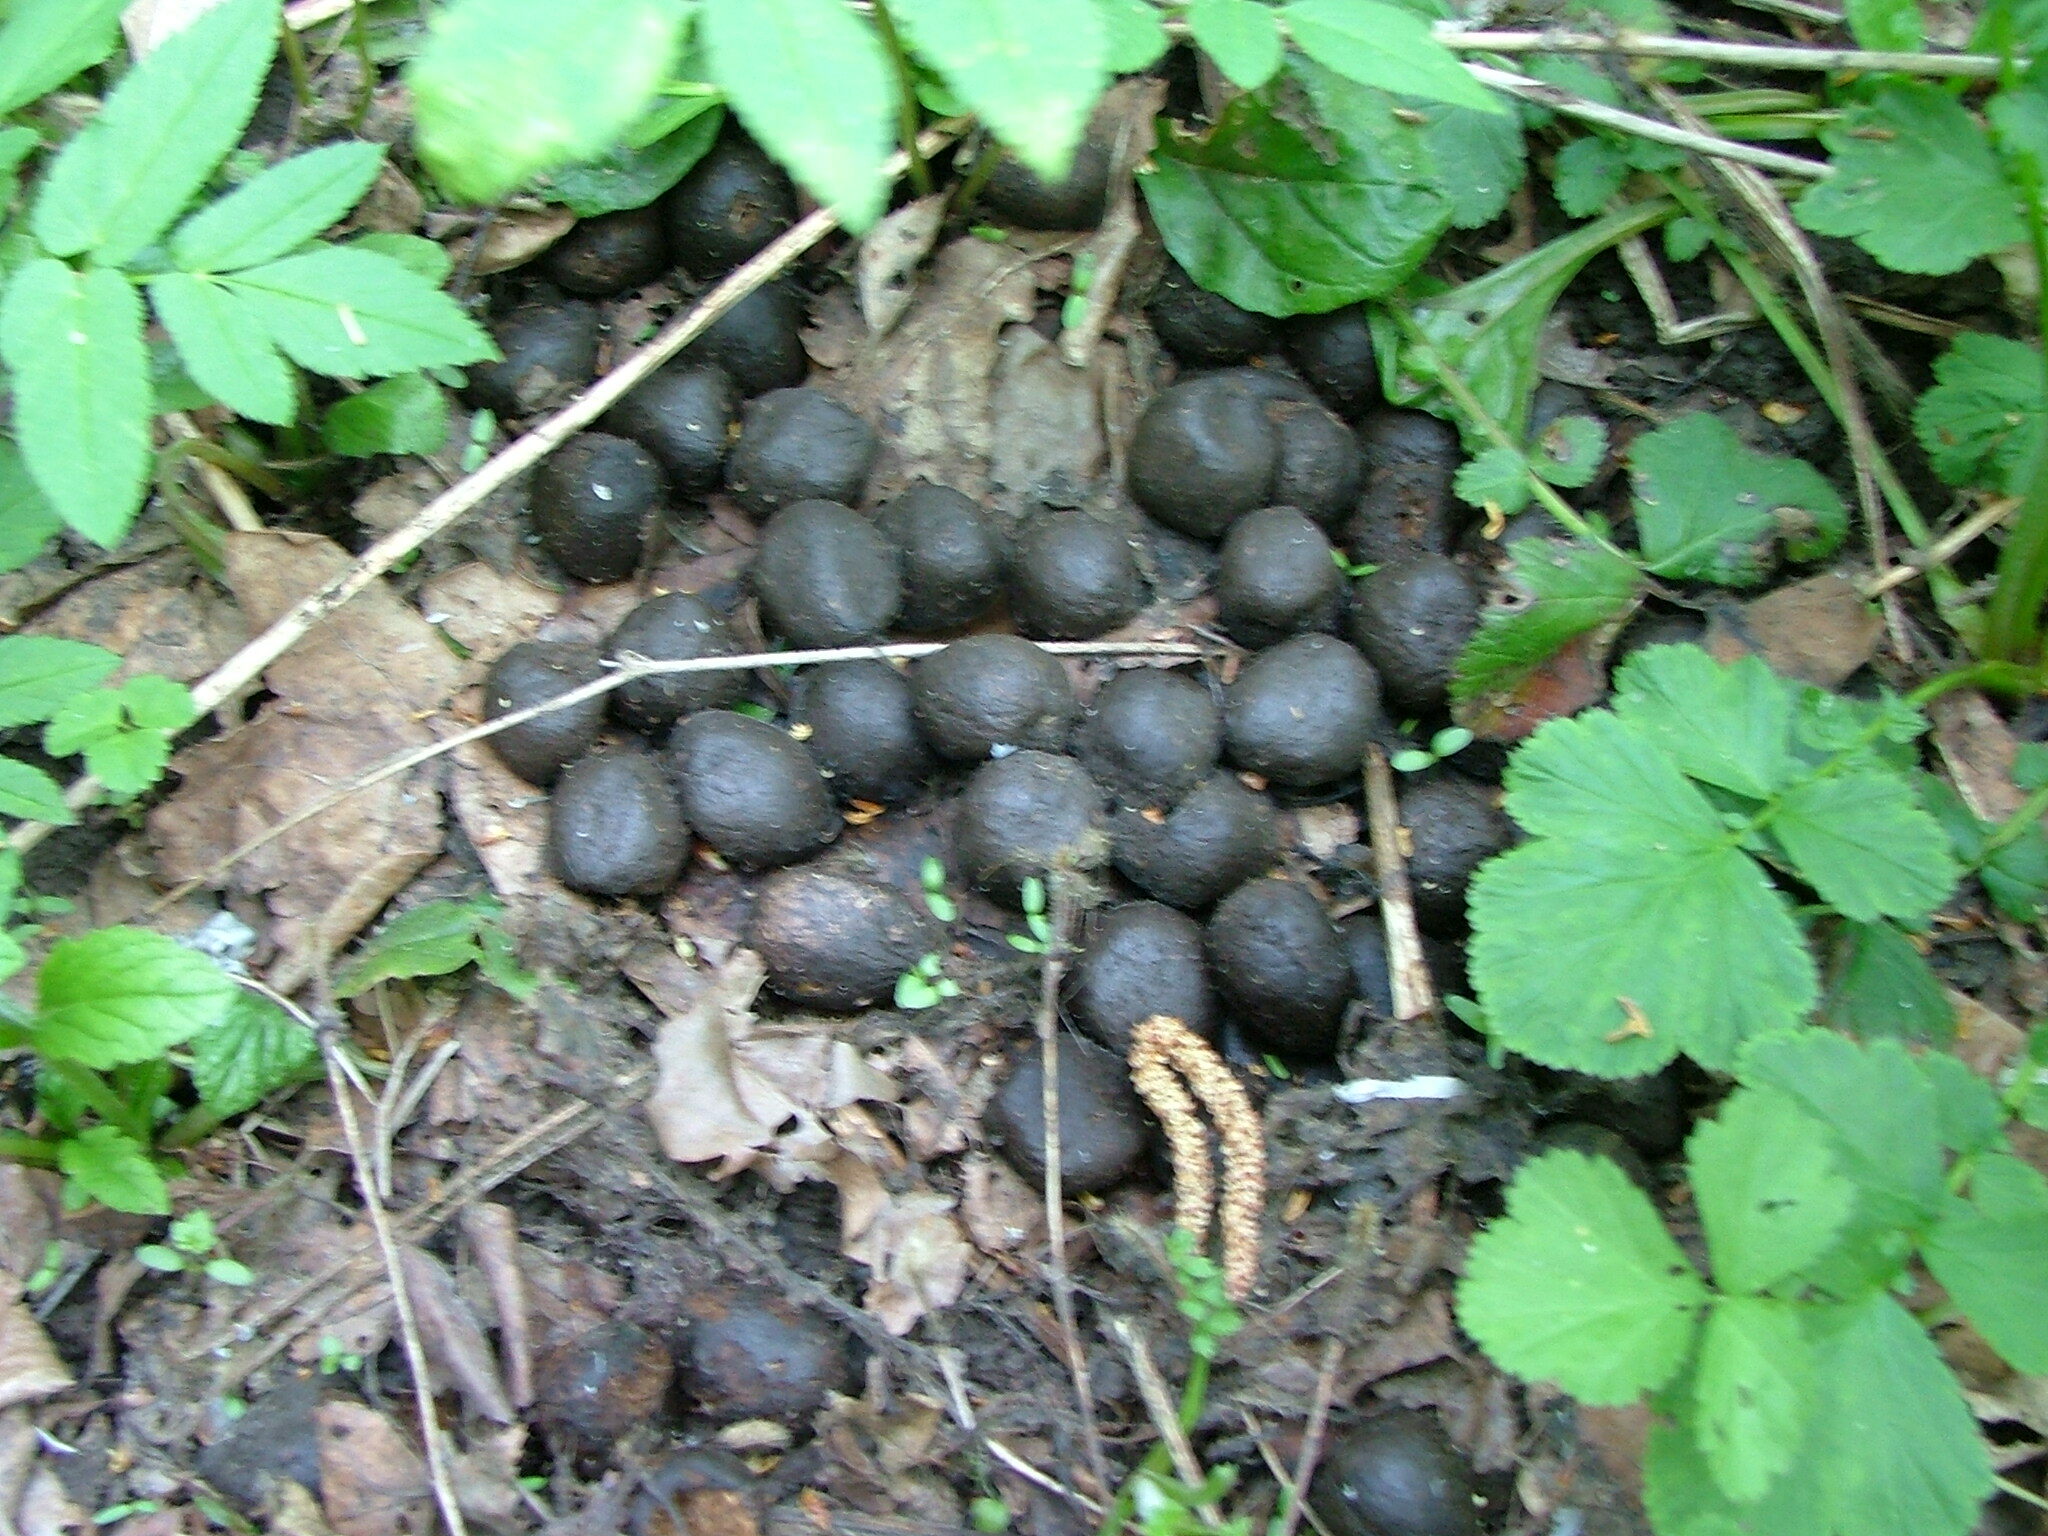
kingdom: Animalia
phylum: Chordata
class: Mammalia
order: Artiodactyla
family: Cervidae
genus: Alces
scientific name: Alces alces
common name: Moose
